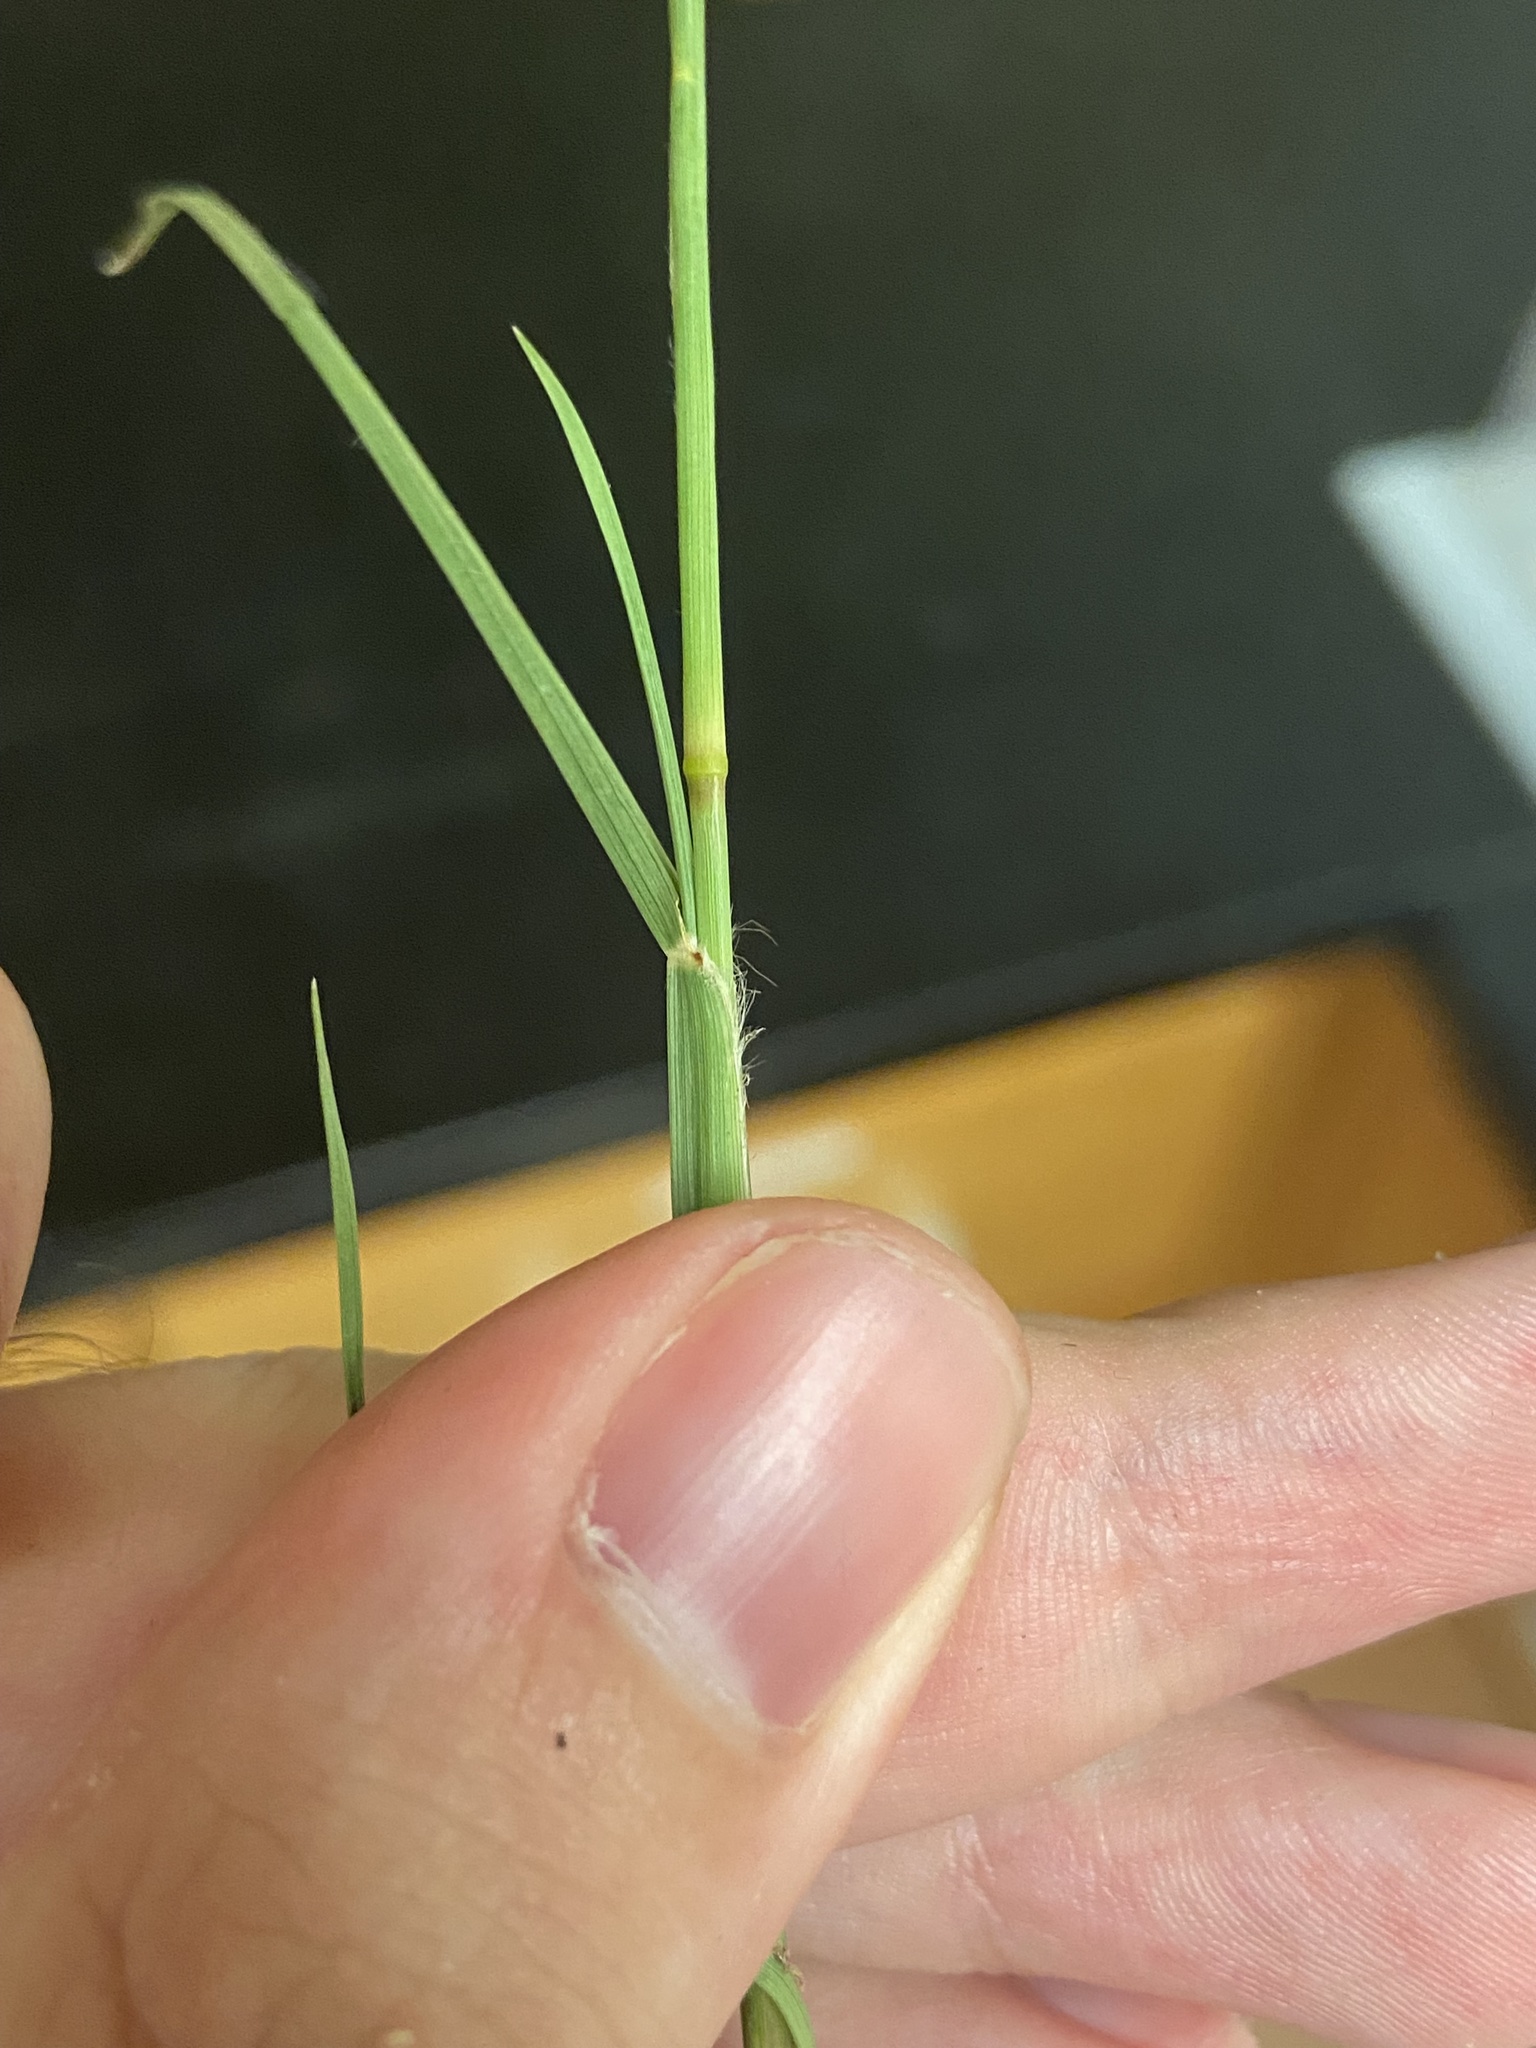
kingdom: Plantae
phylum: Tracheophyta
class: Liliopsida
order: Poales
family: Poaceae
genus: Cenchrus
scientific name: Cenchrus spinifex
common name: Coast sandbur
